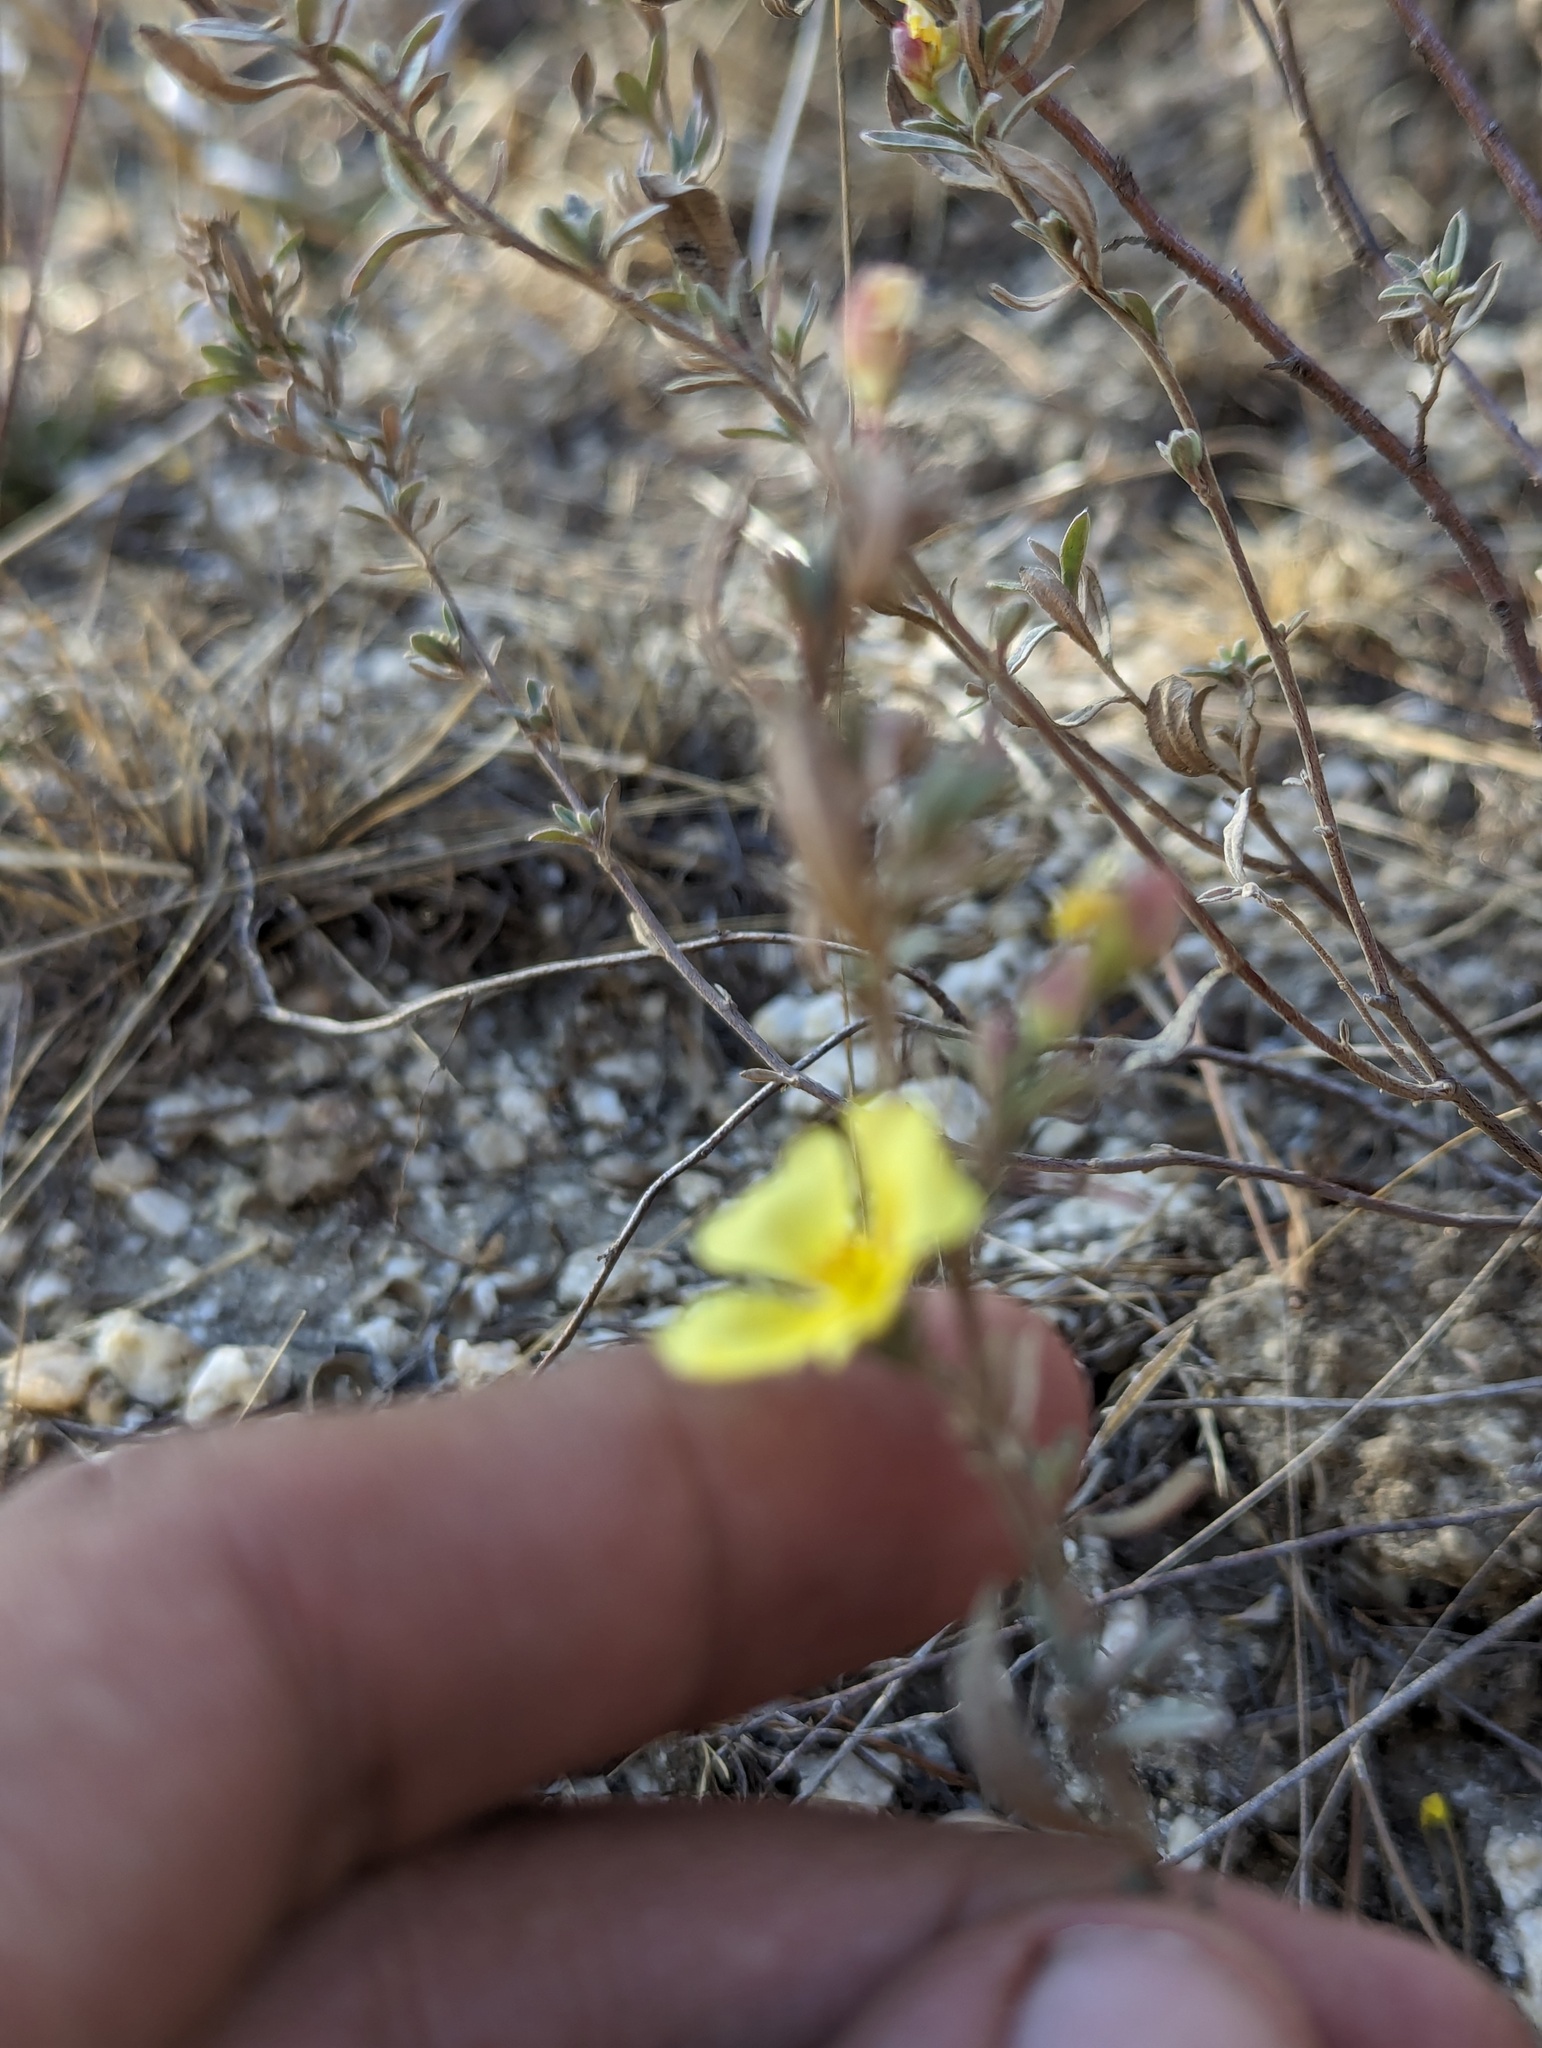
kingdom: Plantae
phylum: Tracheophyta
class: Magnoliopsida
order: Malvales
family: Cistaceae
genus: Crocanthemum
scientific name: Crocanthemum glomeratum
